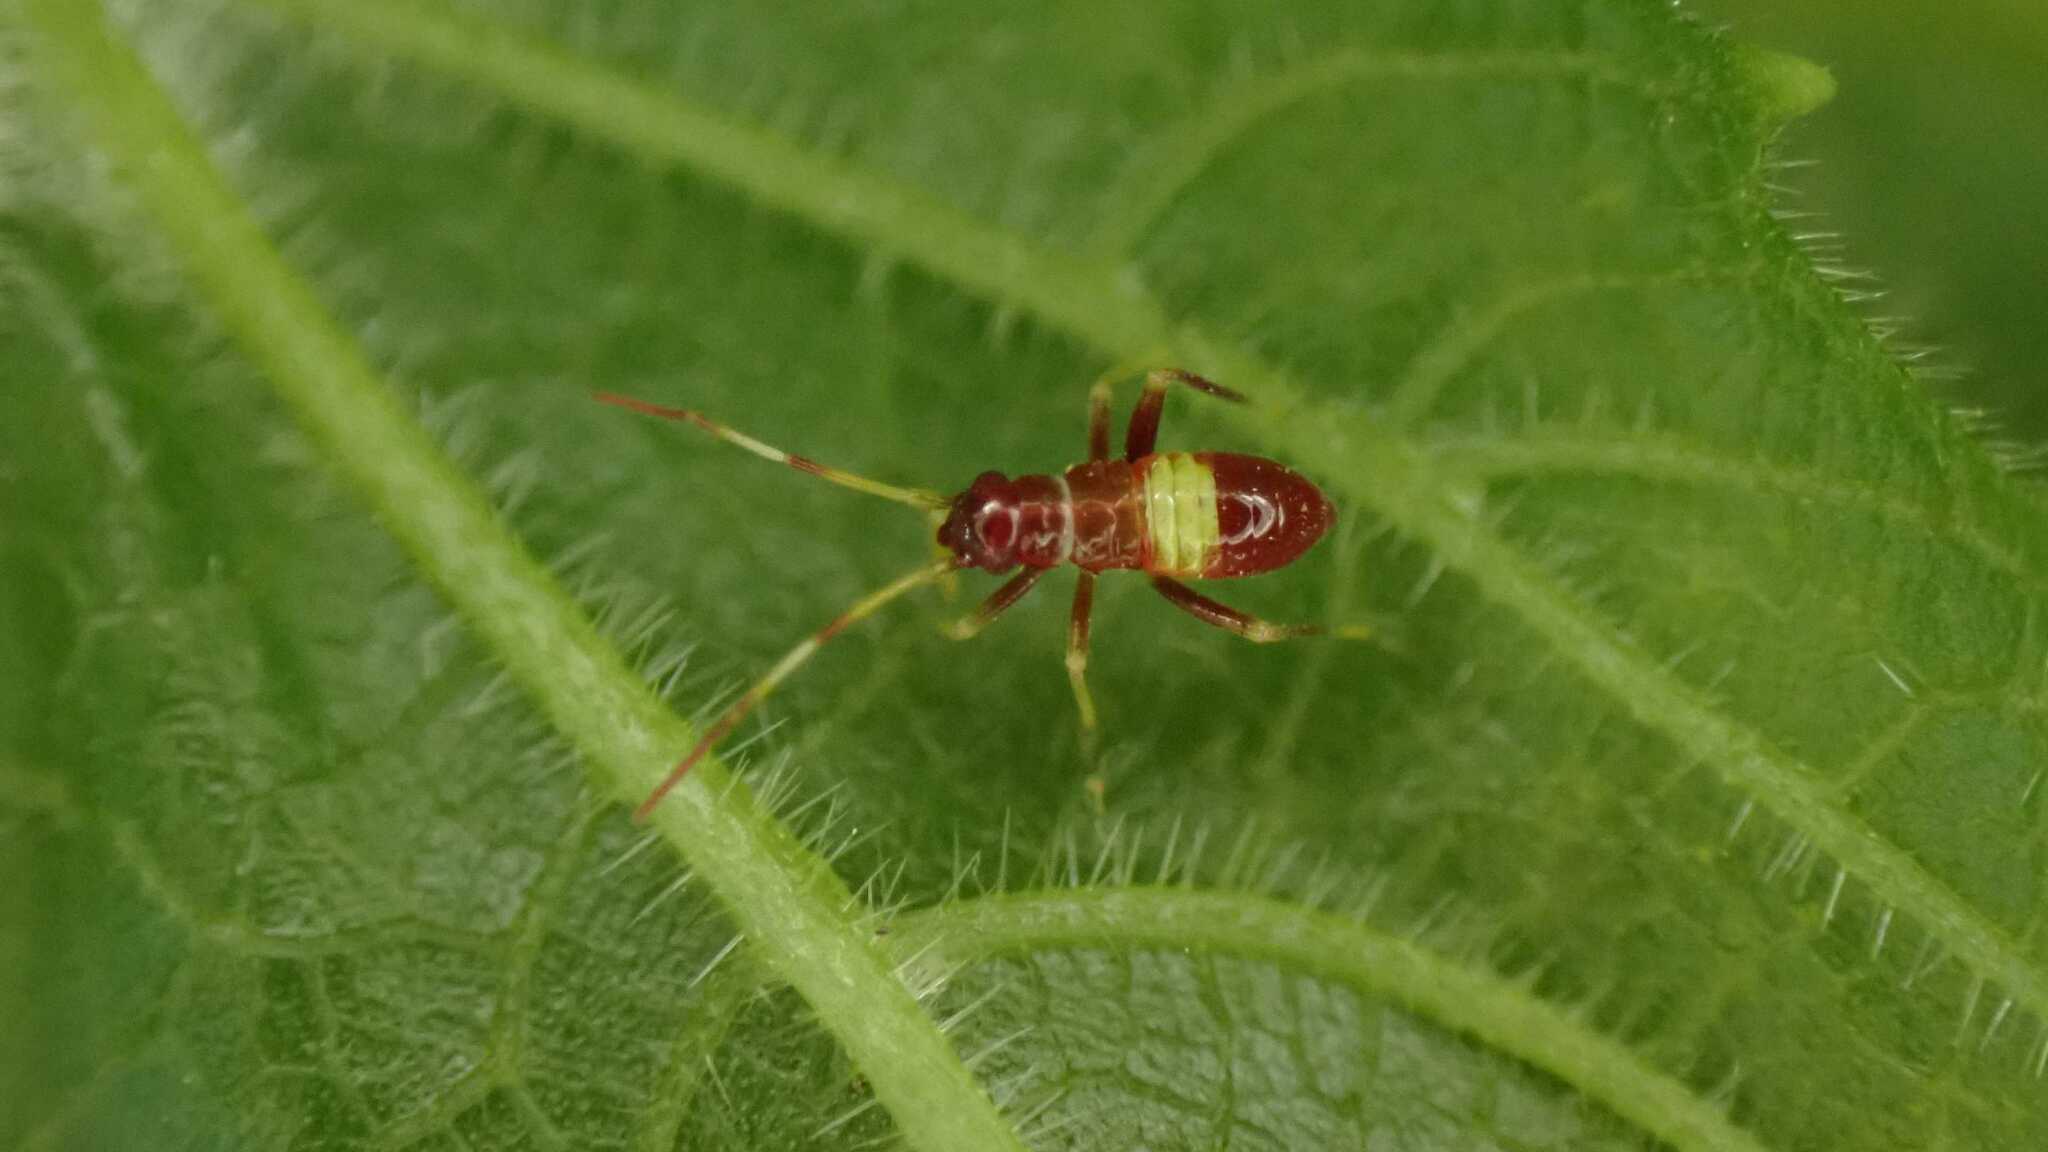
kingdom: Animalia
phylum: Arthropoda
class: Insecta
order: Hemiptera
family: Miridae
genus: Closterotomus
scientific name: Closterotomus biclavatus
